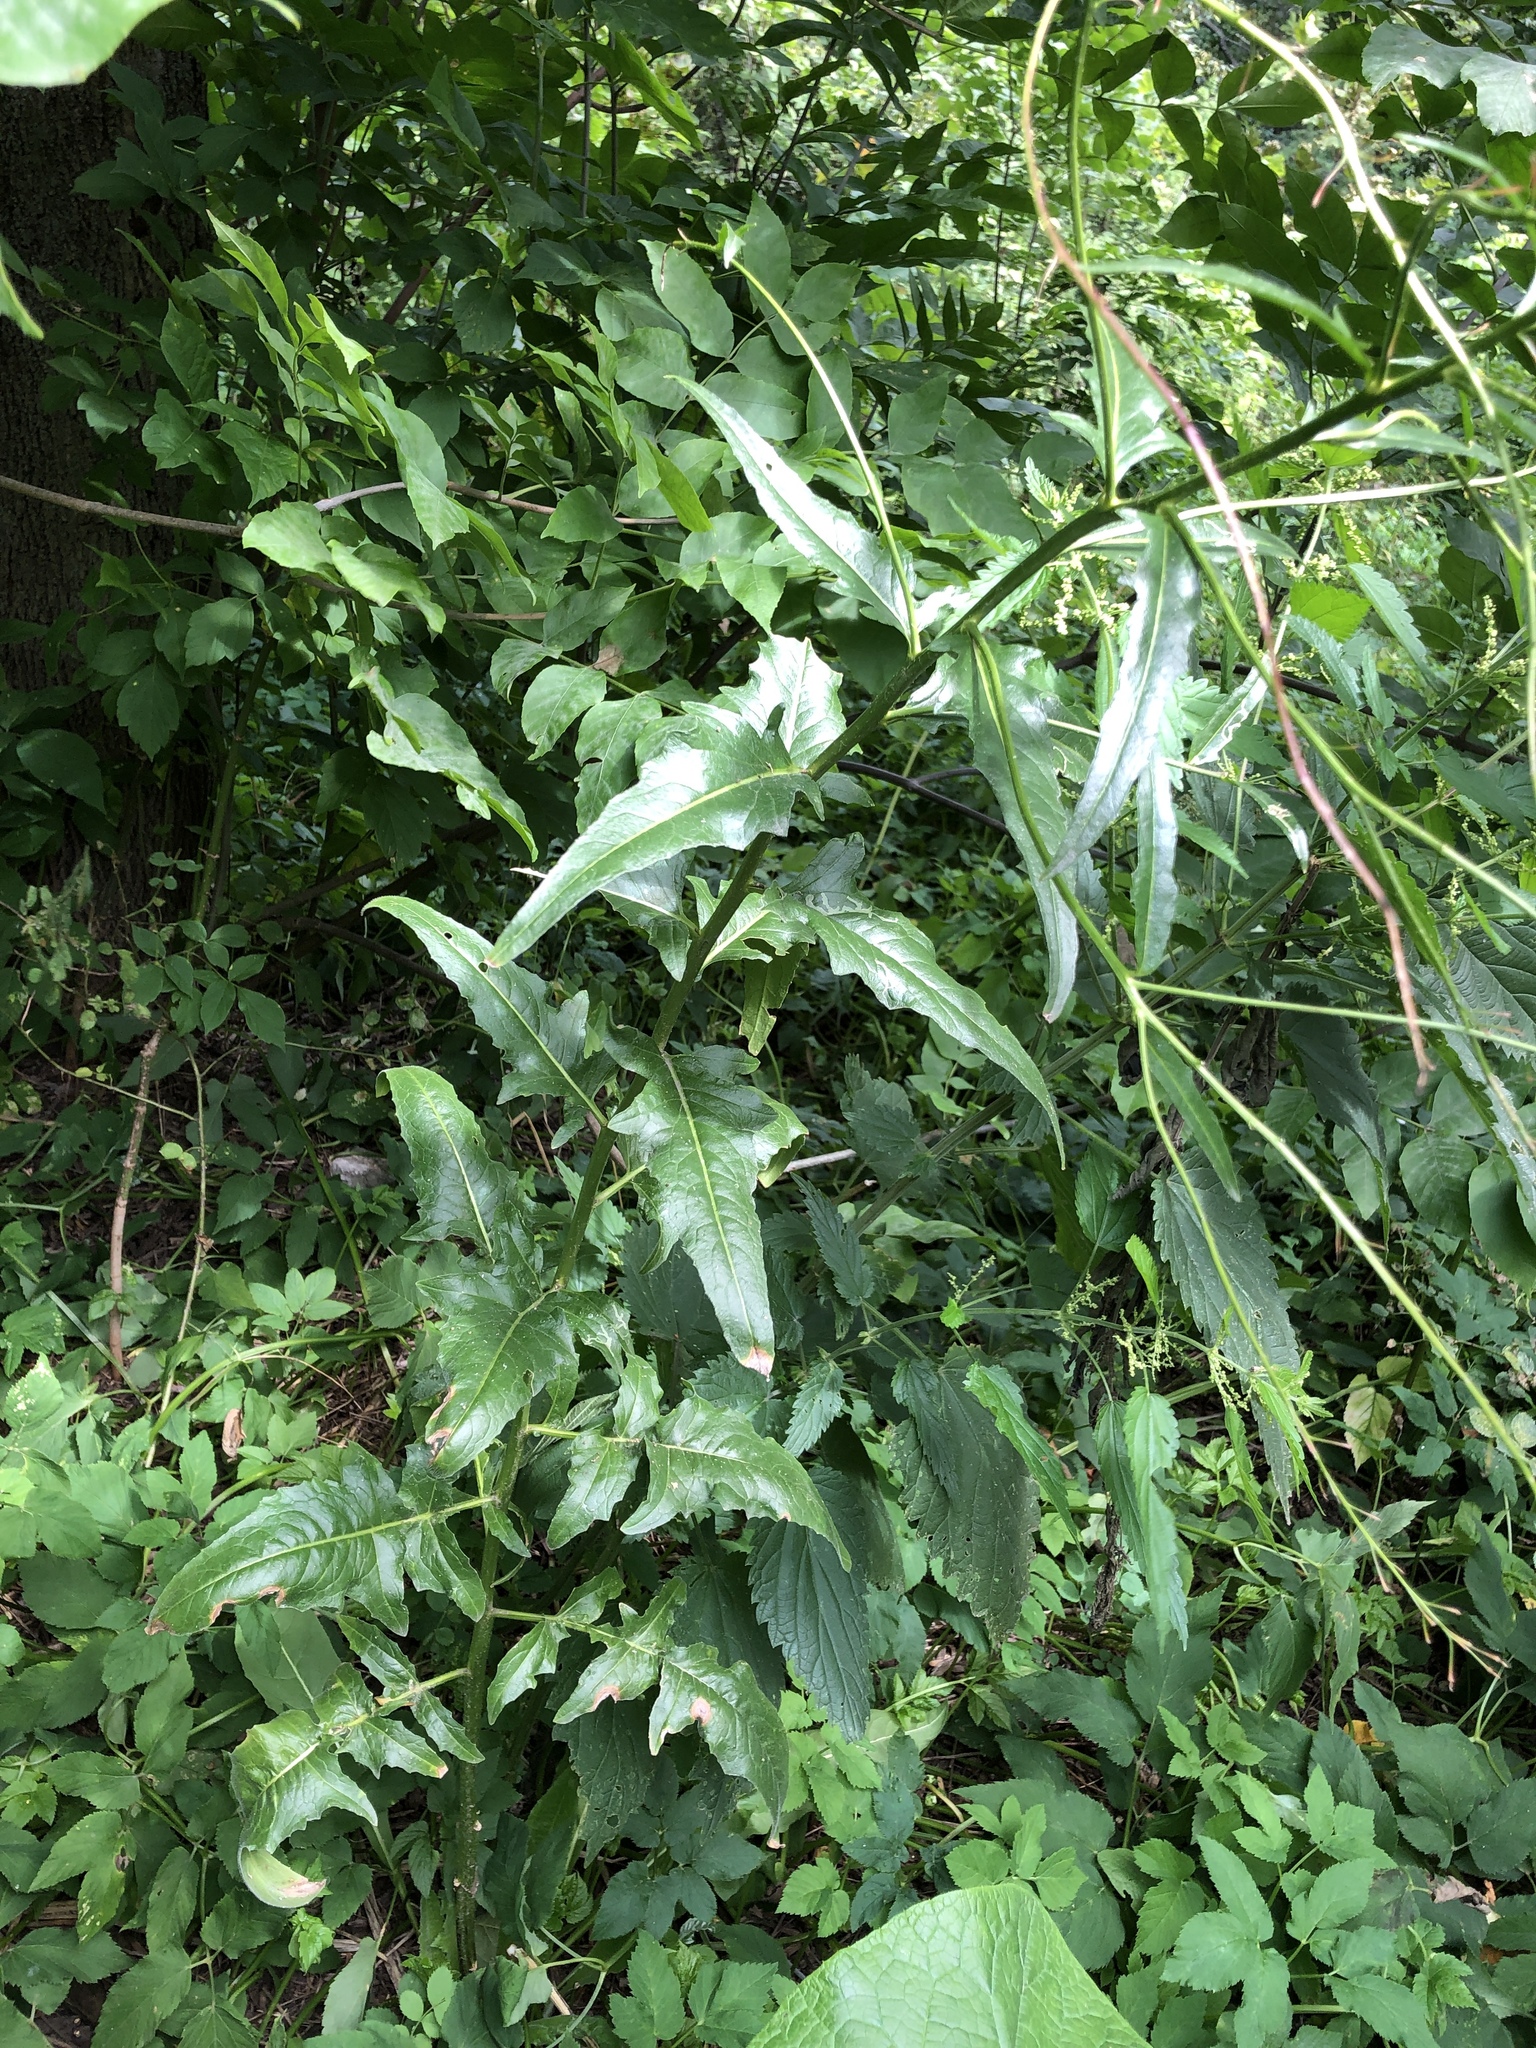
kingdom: Plantae
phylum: Tracheophyta
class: Magnoliopsida
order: Brassicales
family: Brassicaceae
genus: Bunias
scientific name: Bunias orientalis
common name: Warty-cabbage
